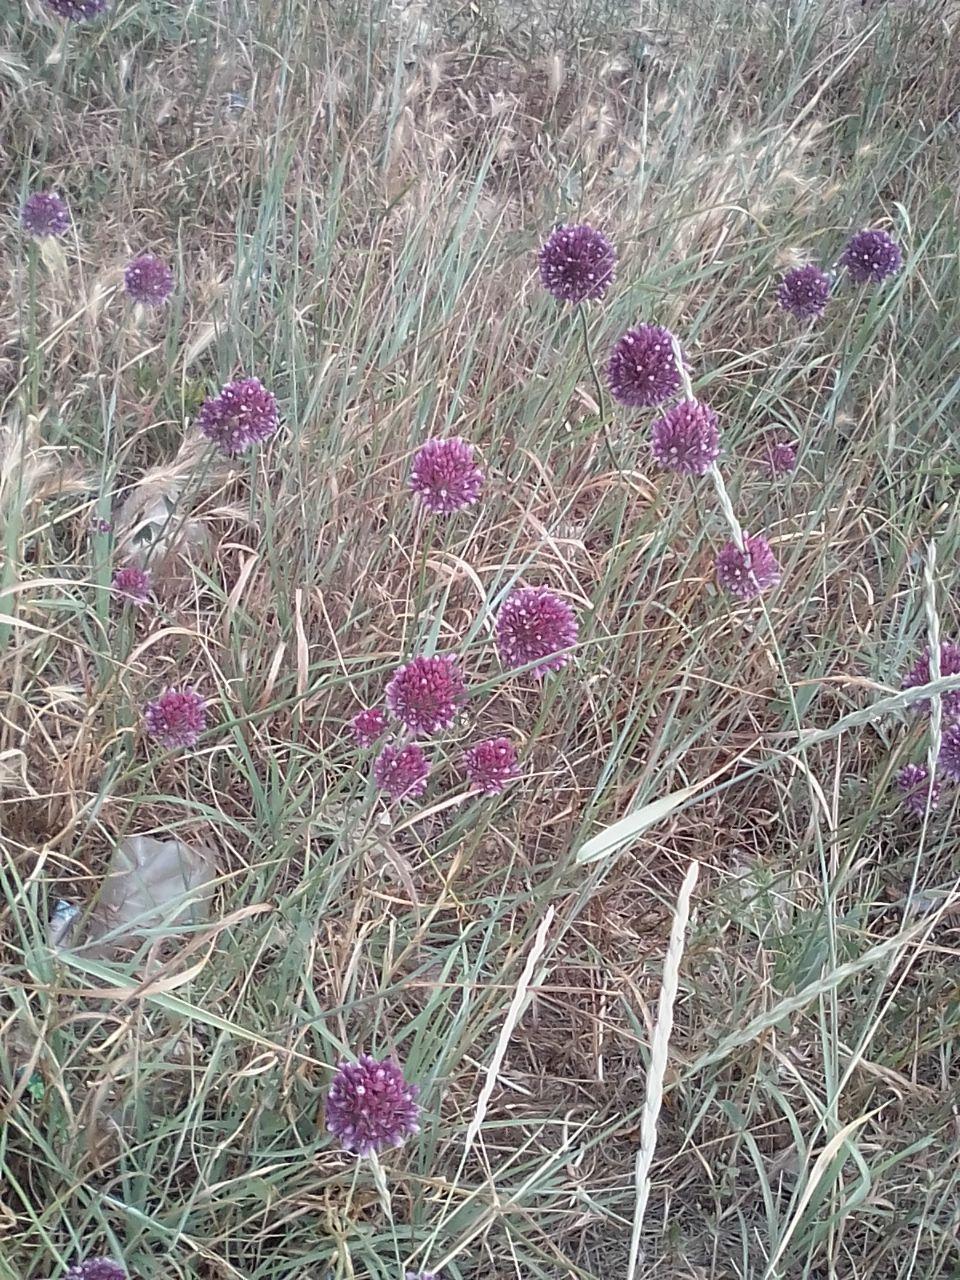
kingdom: Plantae
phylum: Tracheophyta
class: Liliopsida
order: Asparagales
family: Amaryllidaceae
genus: Allium
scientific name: Allium rotundum
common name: Sand leek
